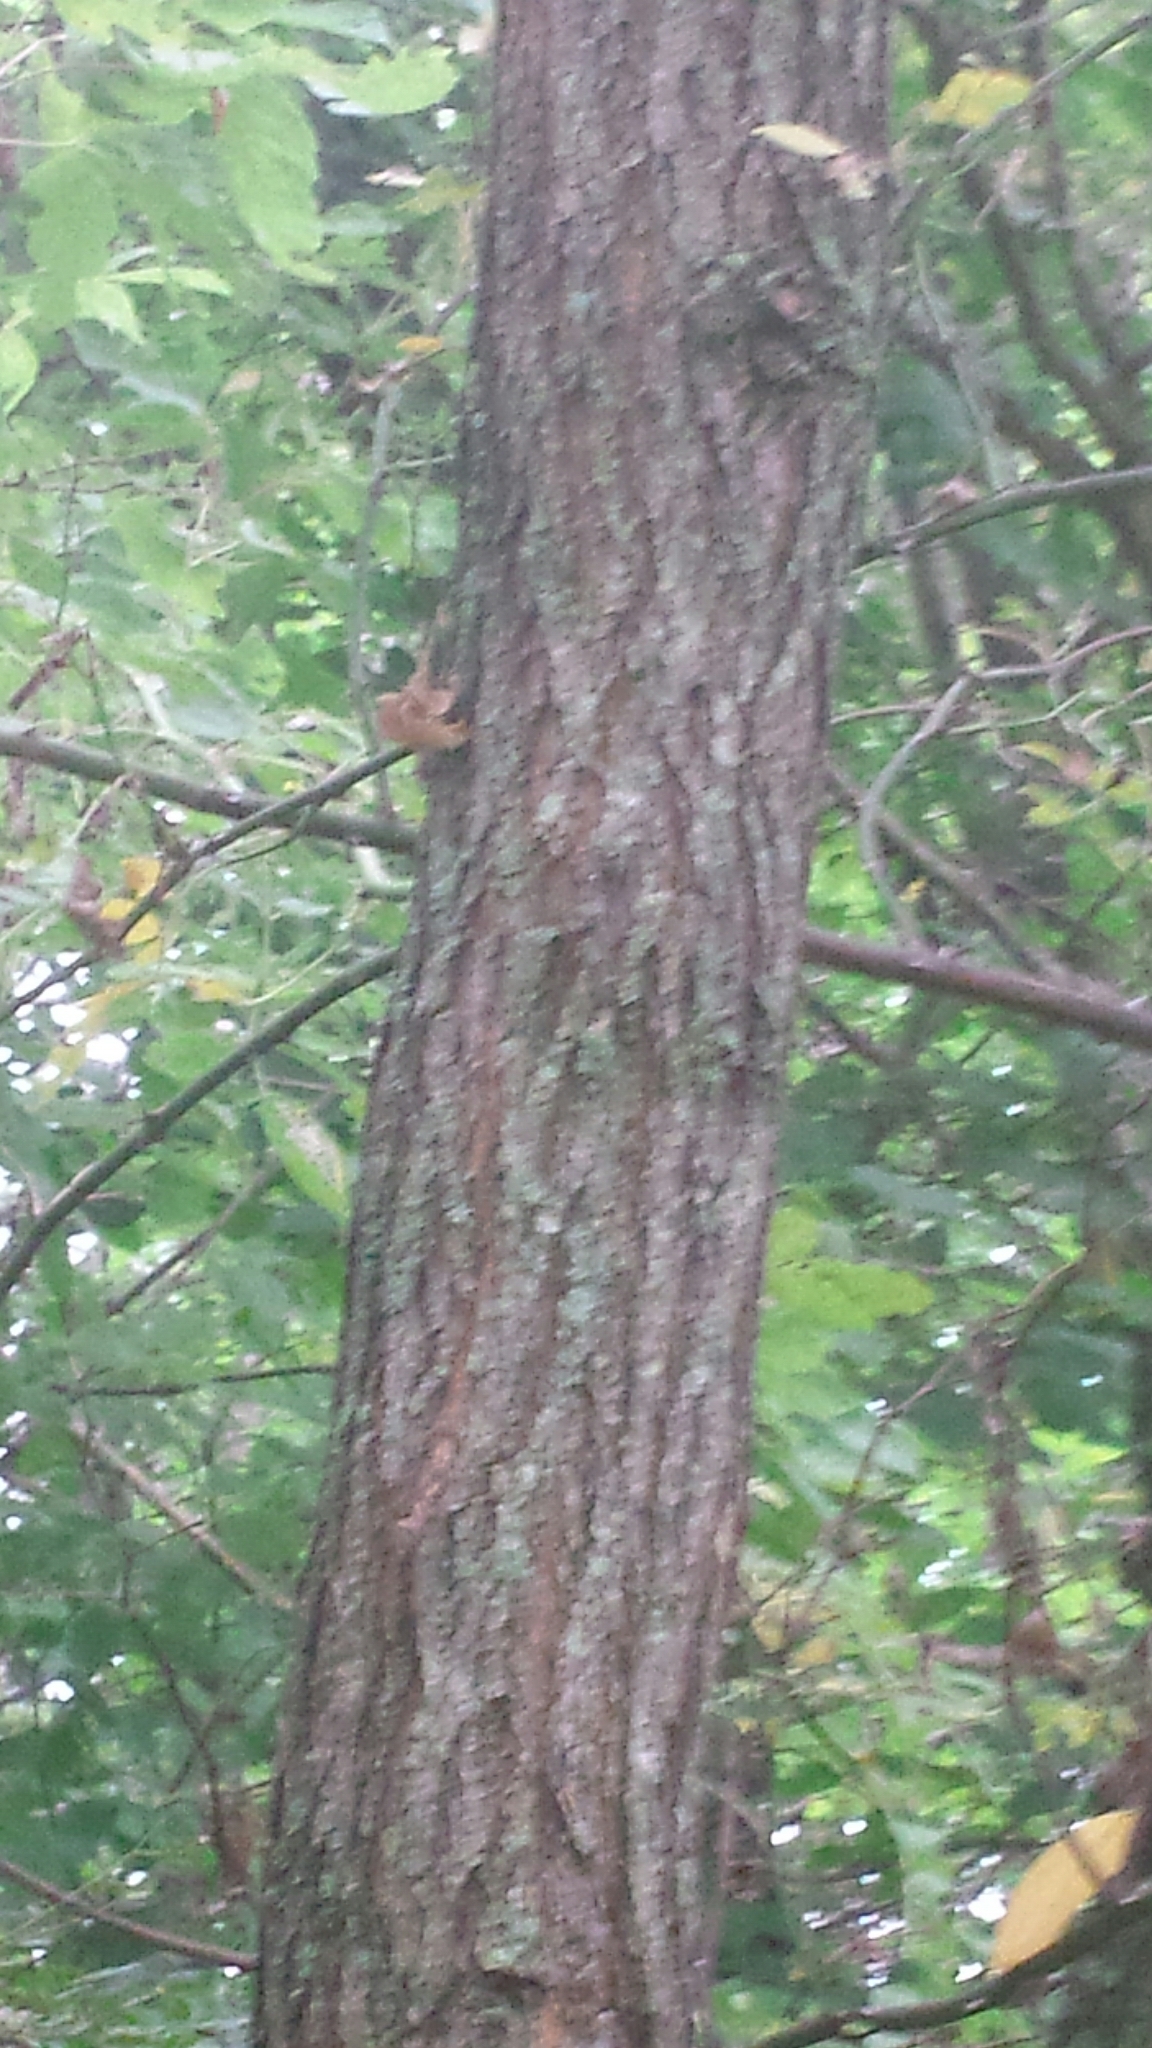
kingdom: Plantae
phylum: Tracheophyta
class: Magnoliopsida
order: Fabales
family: Fabaceae
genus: Robinia
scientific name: Robinia pseudoacacia
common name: Black locust
